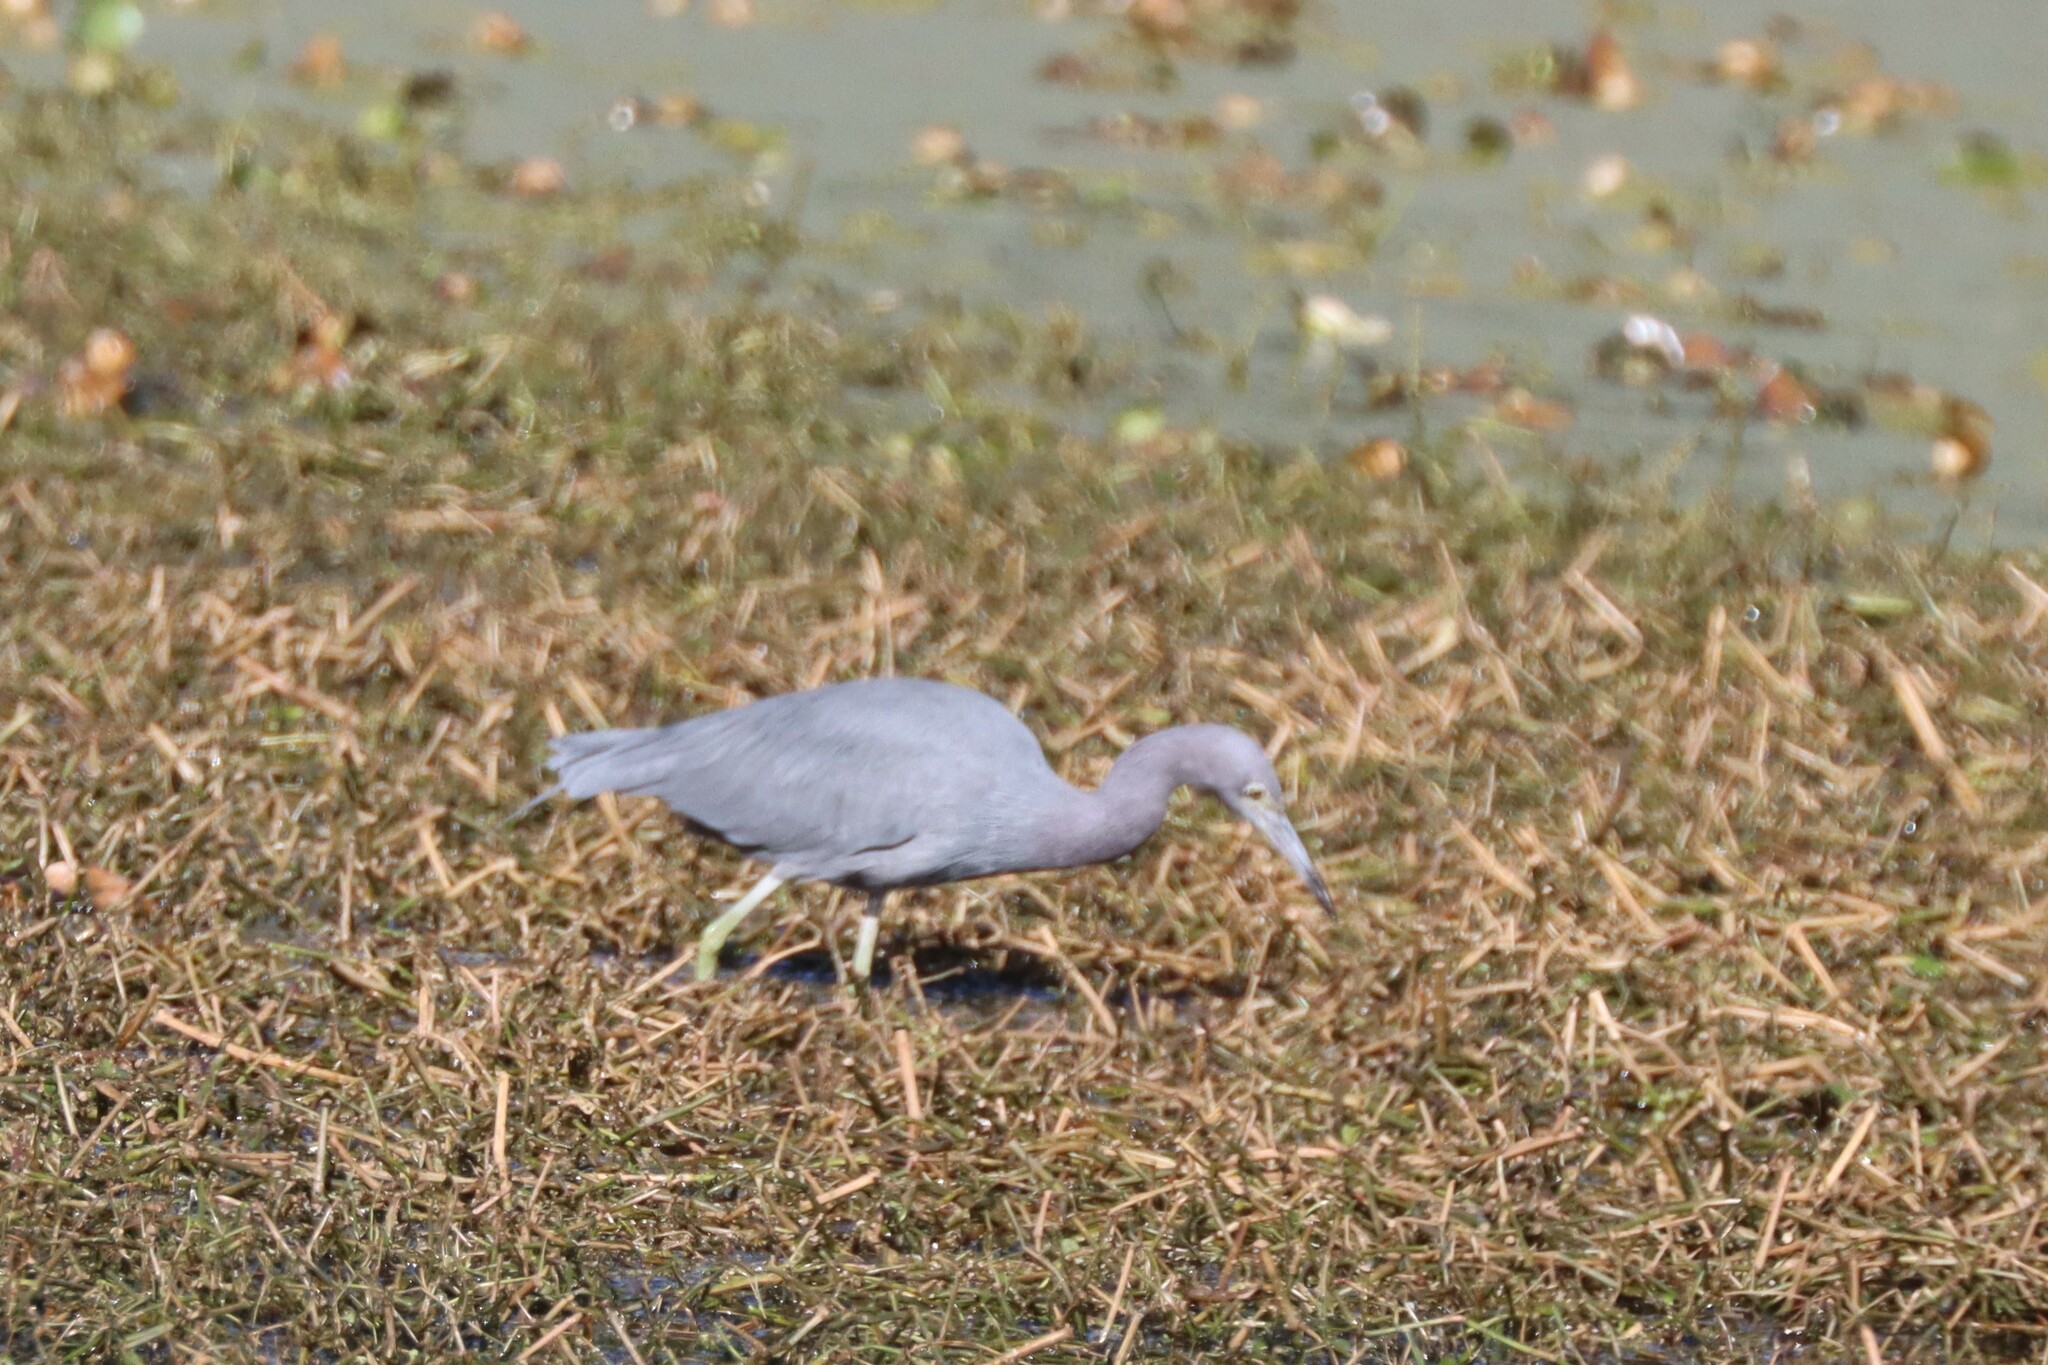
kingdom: Animalia
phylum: Chordata
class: Aves
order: Pelecaniformes
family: Ardeidae
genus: Egretta
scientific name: Egretta caerulea
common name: Little blue heron
